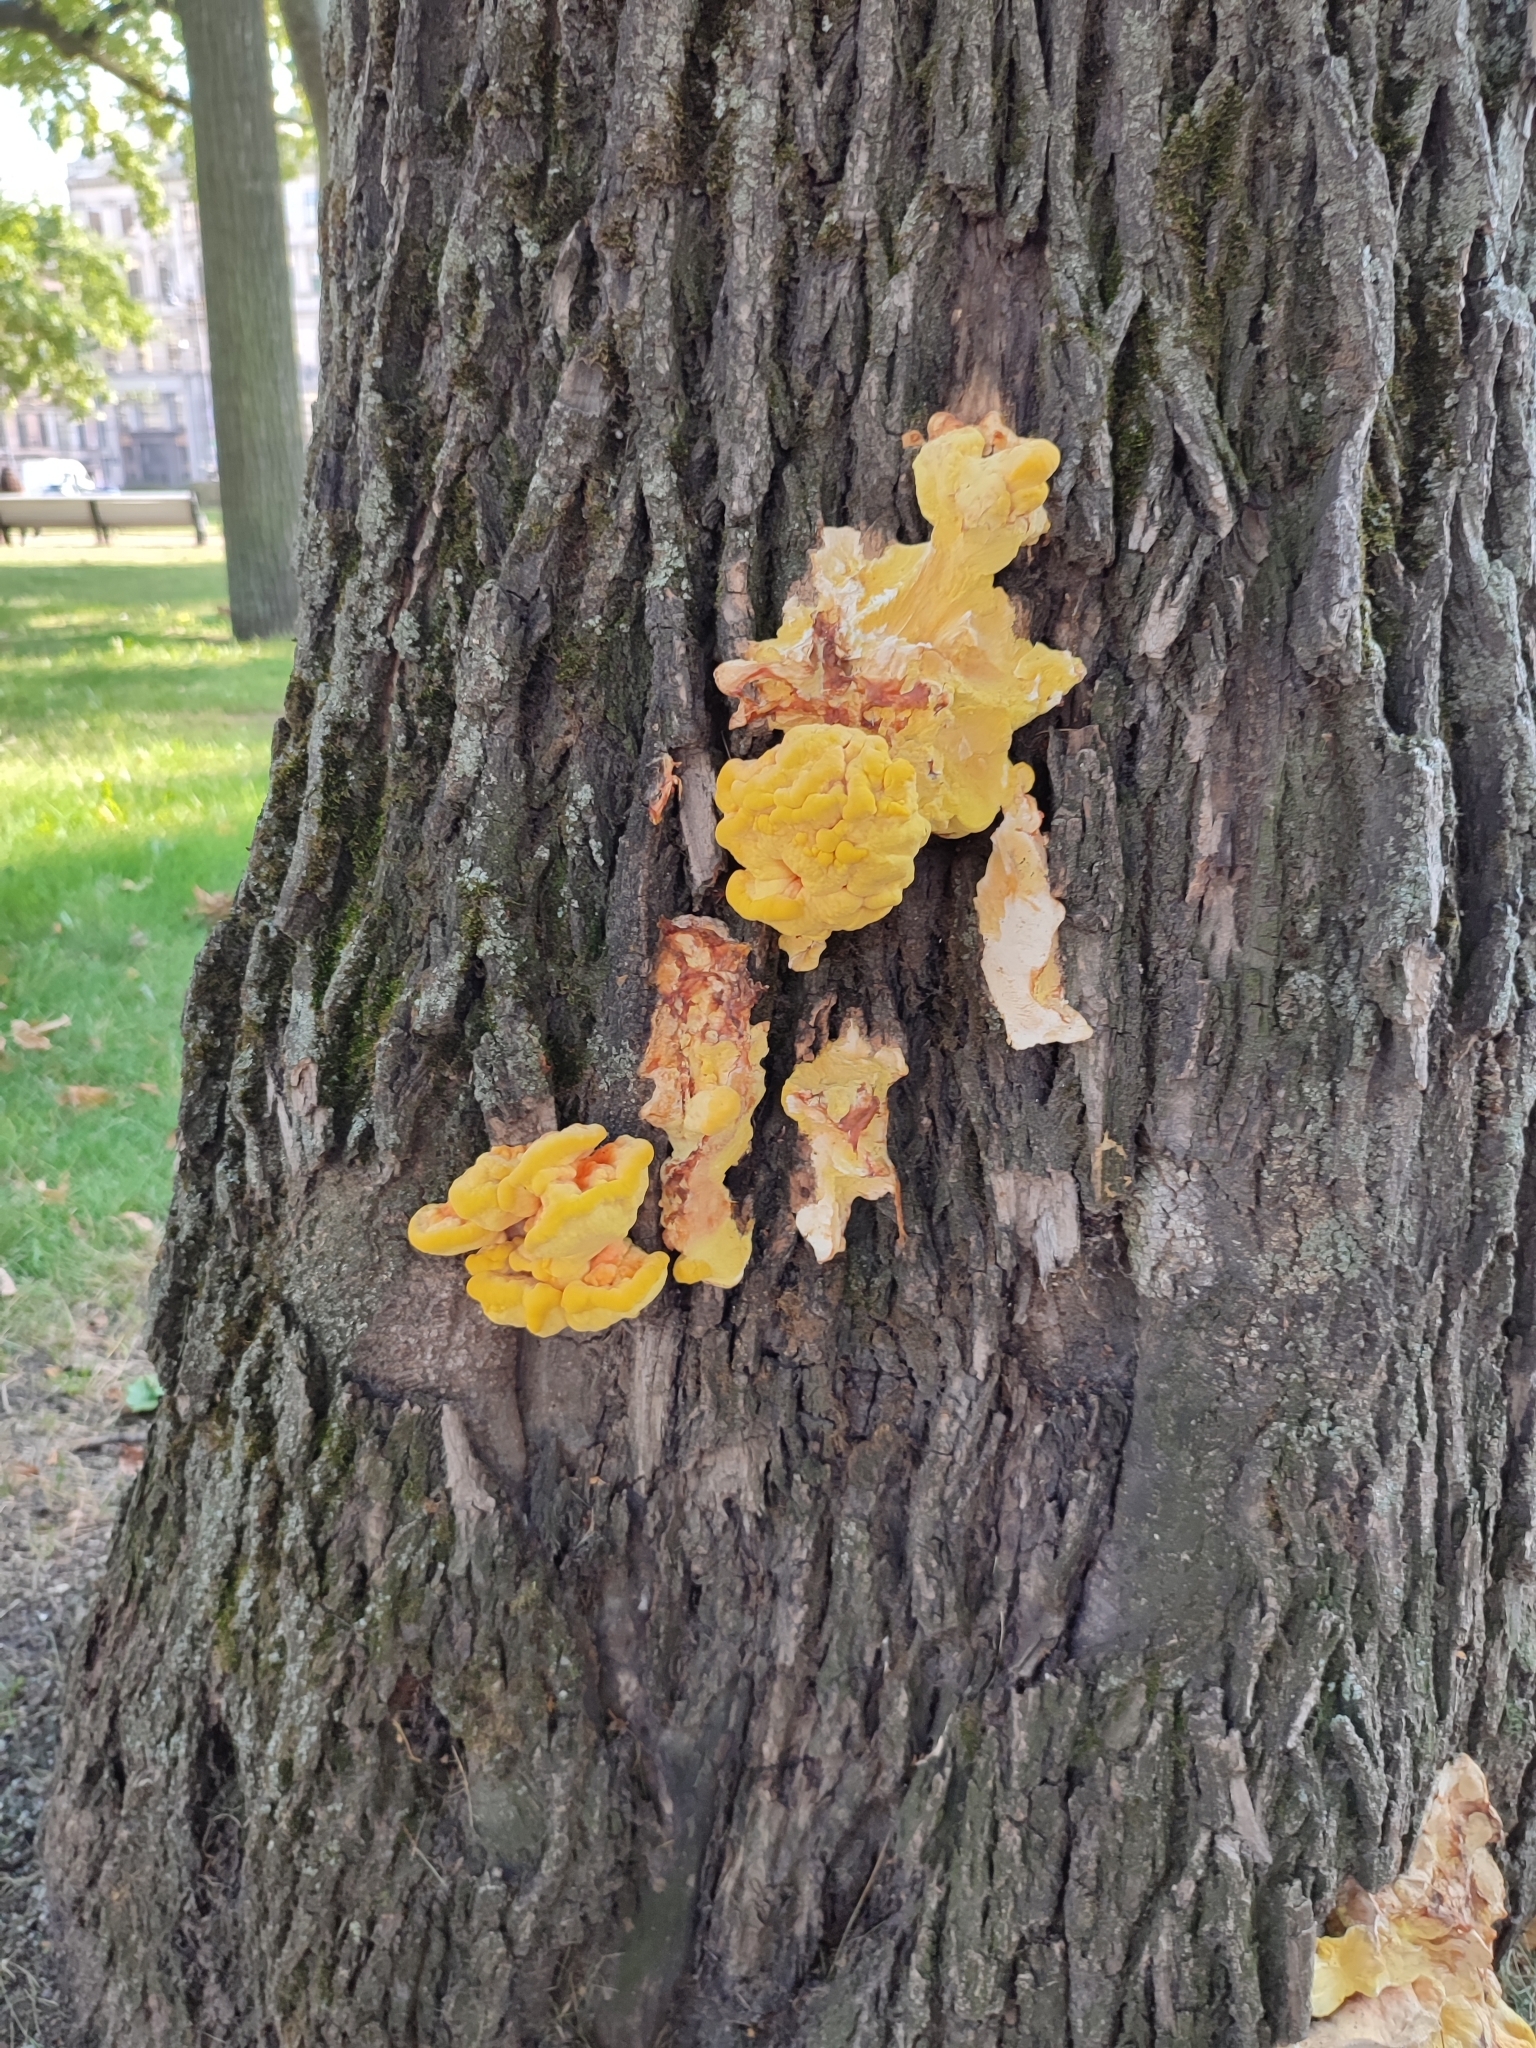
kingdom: Fungi
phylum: Basidiomycota
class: Agaricomycetes
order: Polyporales
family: Laetiporaceae
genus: Laetiporus
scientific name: Laetiporus sulphureus
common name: Chicken of the woods
